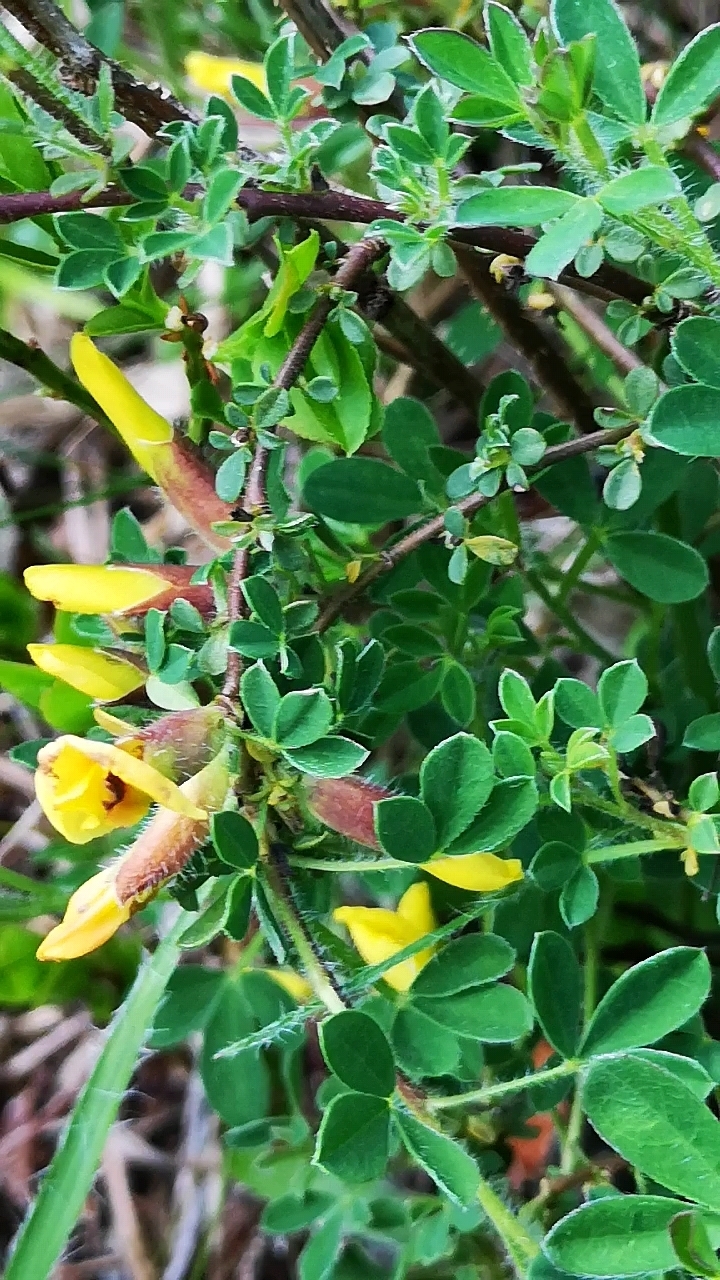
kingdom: Plantae
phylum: Tracheophyta
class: Magnoliopsida
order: Fabales
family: Fabaceae
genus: Chamaecytisus
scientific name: Chamaecytisus hirsutus
